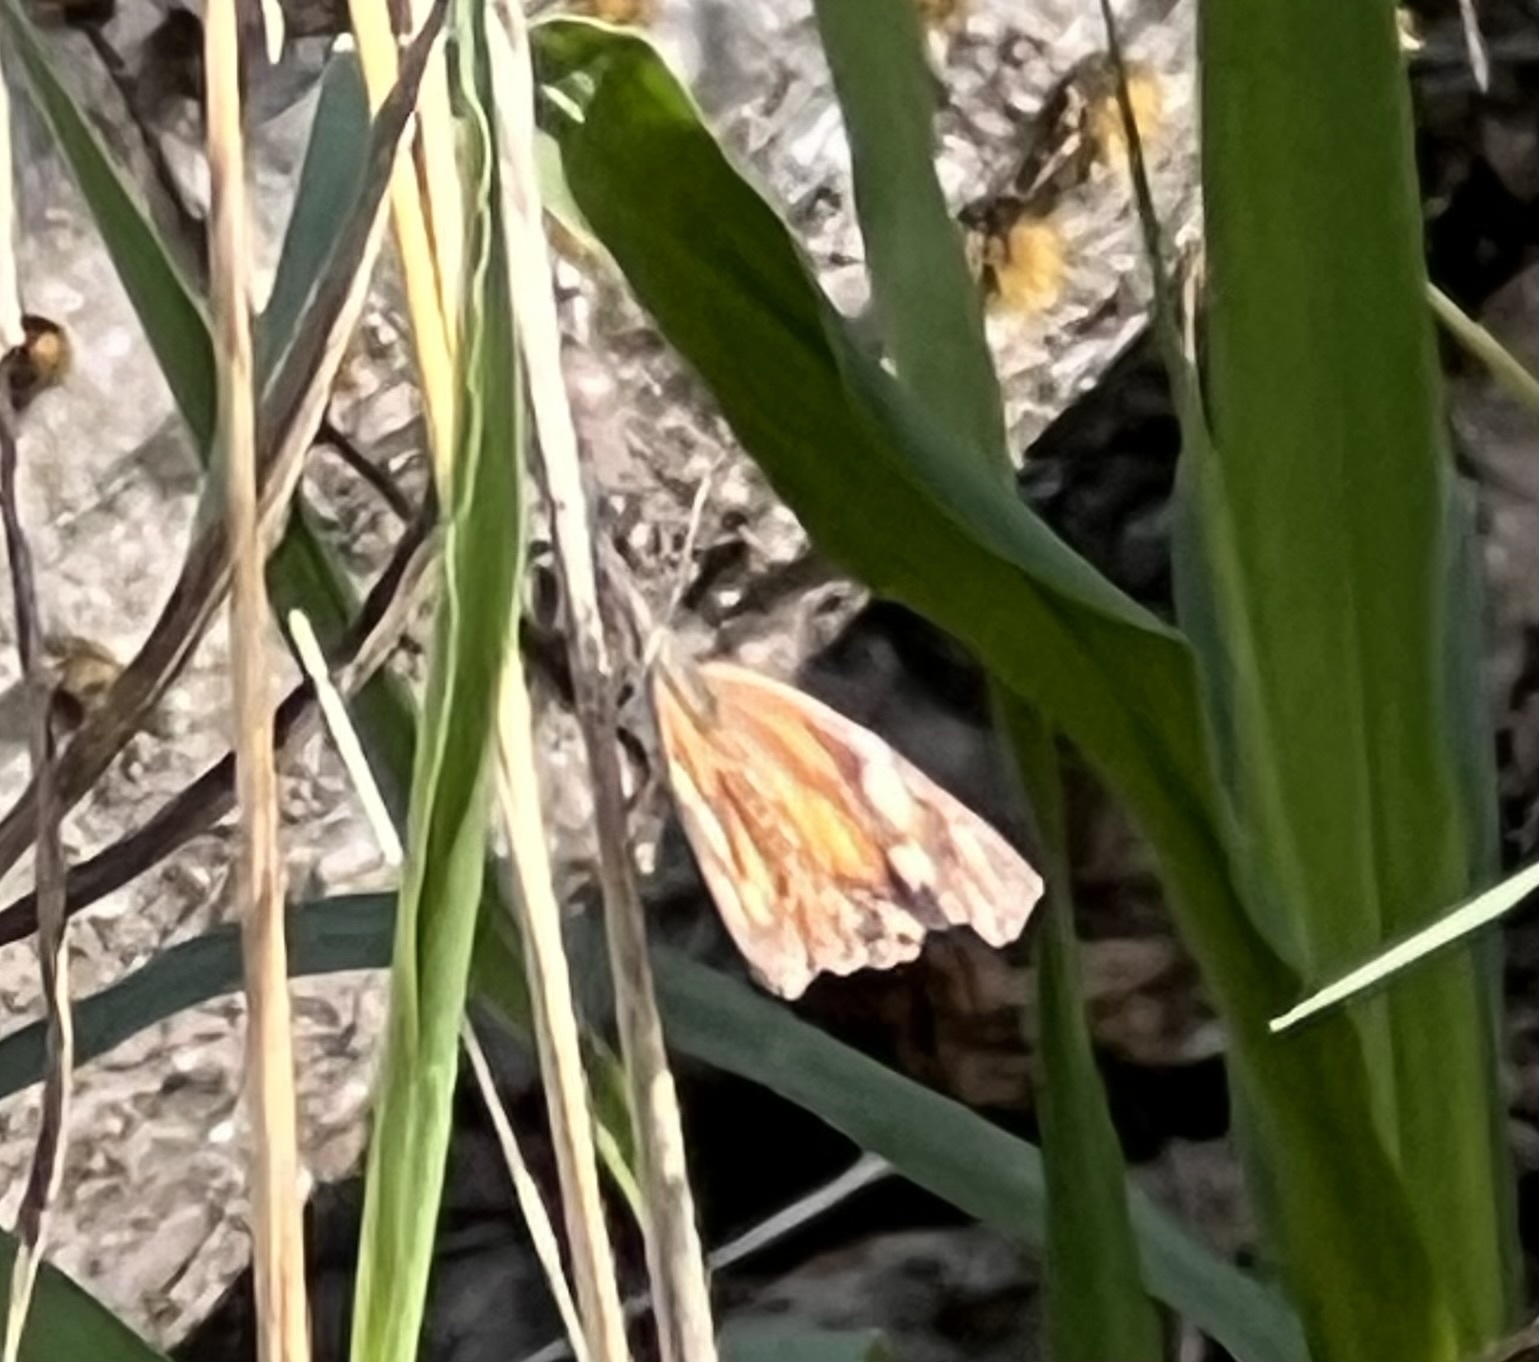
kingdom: Animalia
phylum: Arthropoda
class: Insecta
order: Lepidoptera
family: Nymphalidae
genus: Libytheana
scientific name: Libytheana carinenta
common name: American snout
